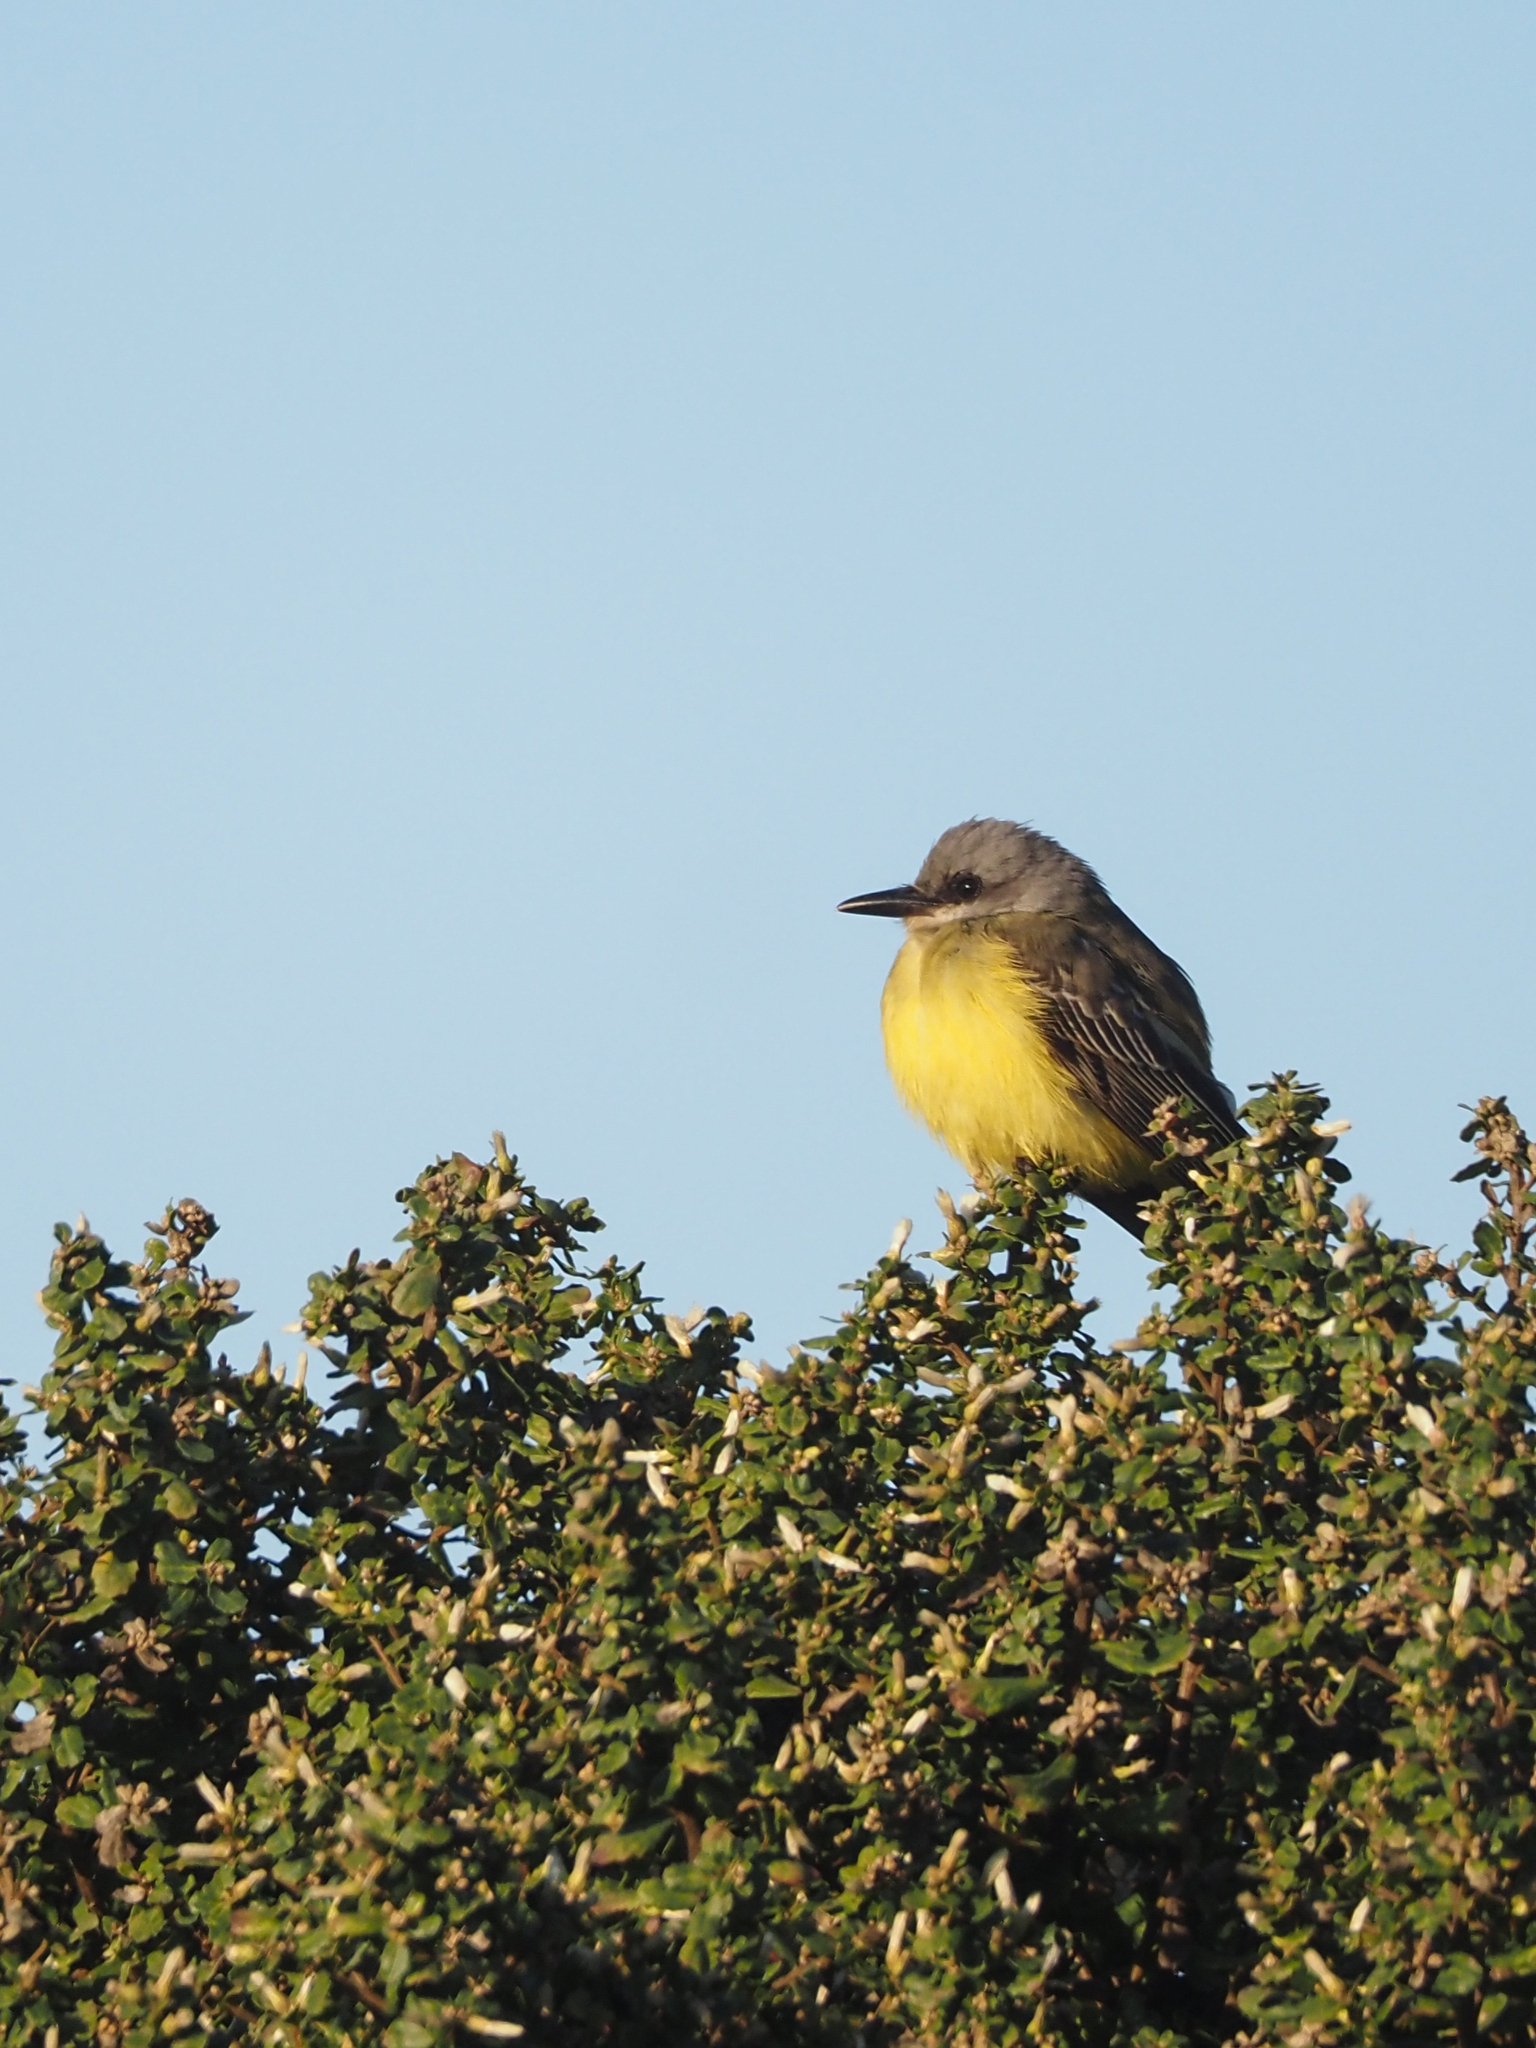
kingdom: Animalia
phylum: Chordata
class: Aves
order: Passeriformes
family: Tyrannidae
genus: Tyrannus
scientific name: Tyrannus melancholicus
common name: Tropical kingbird
